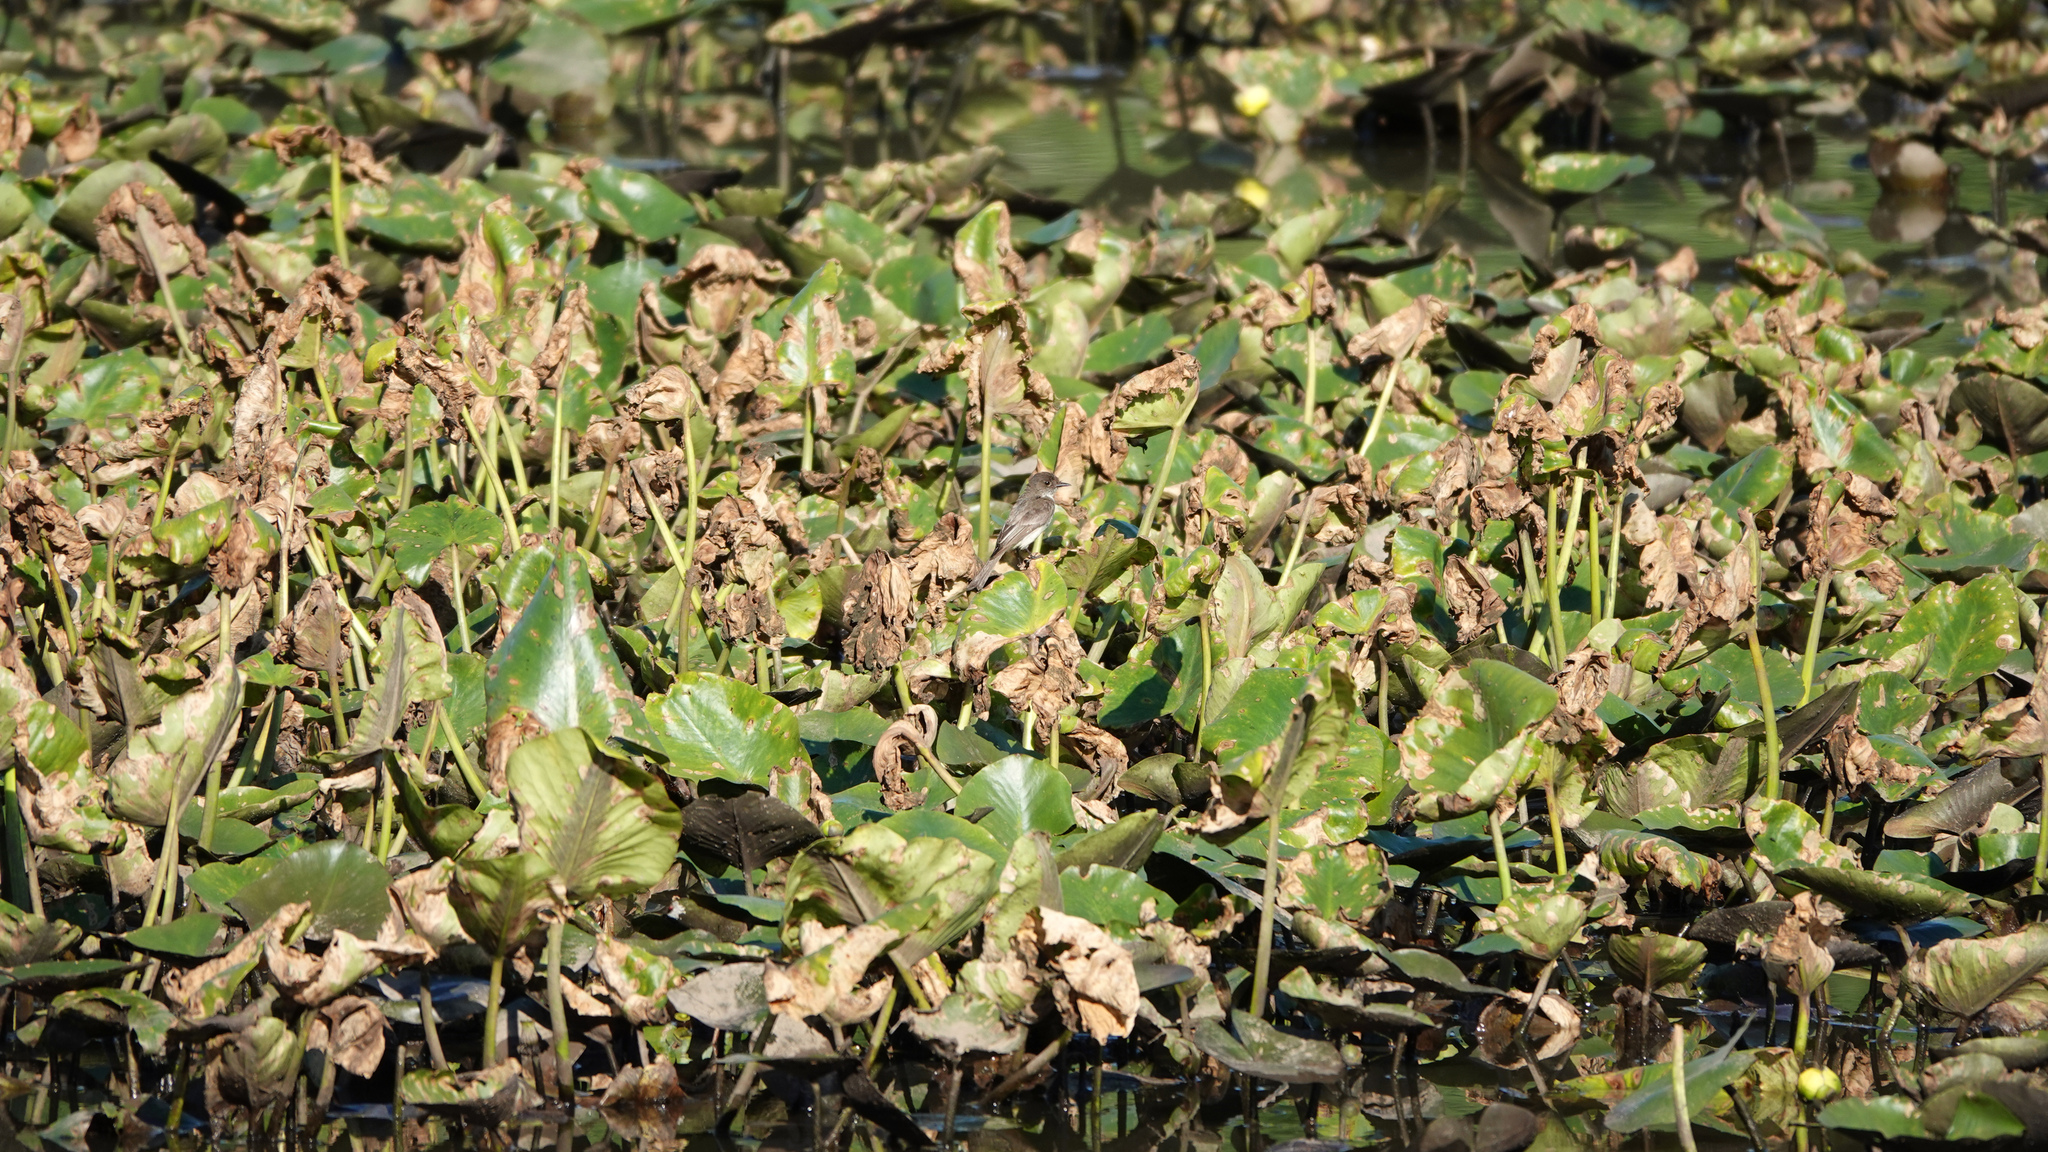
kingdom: Animalia
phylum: Chordata
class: Aves
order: Passeriformes
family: Tyrannidae
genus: Sayornis
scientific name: Sayornis phoebe
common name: Eastern phoebe
